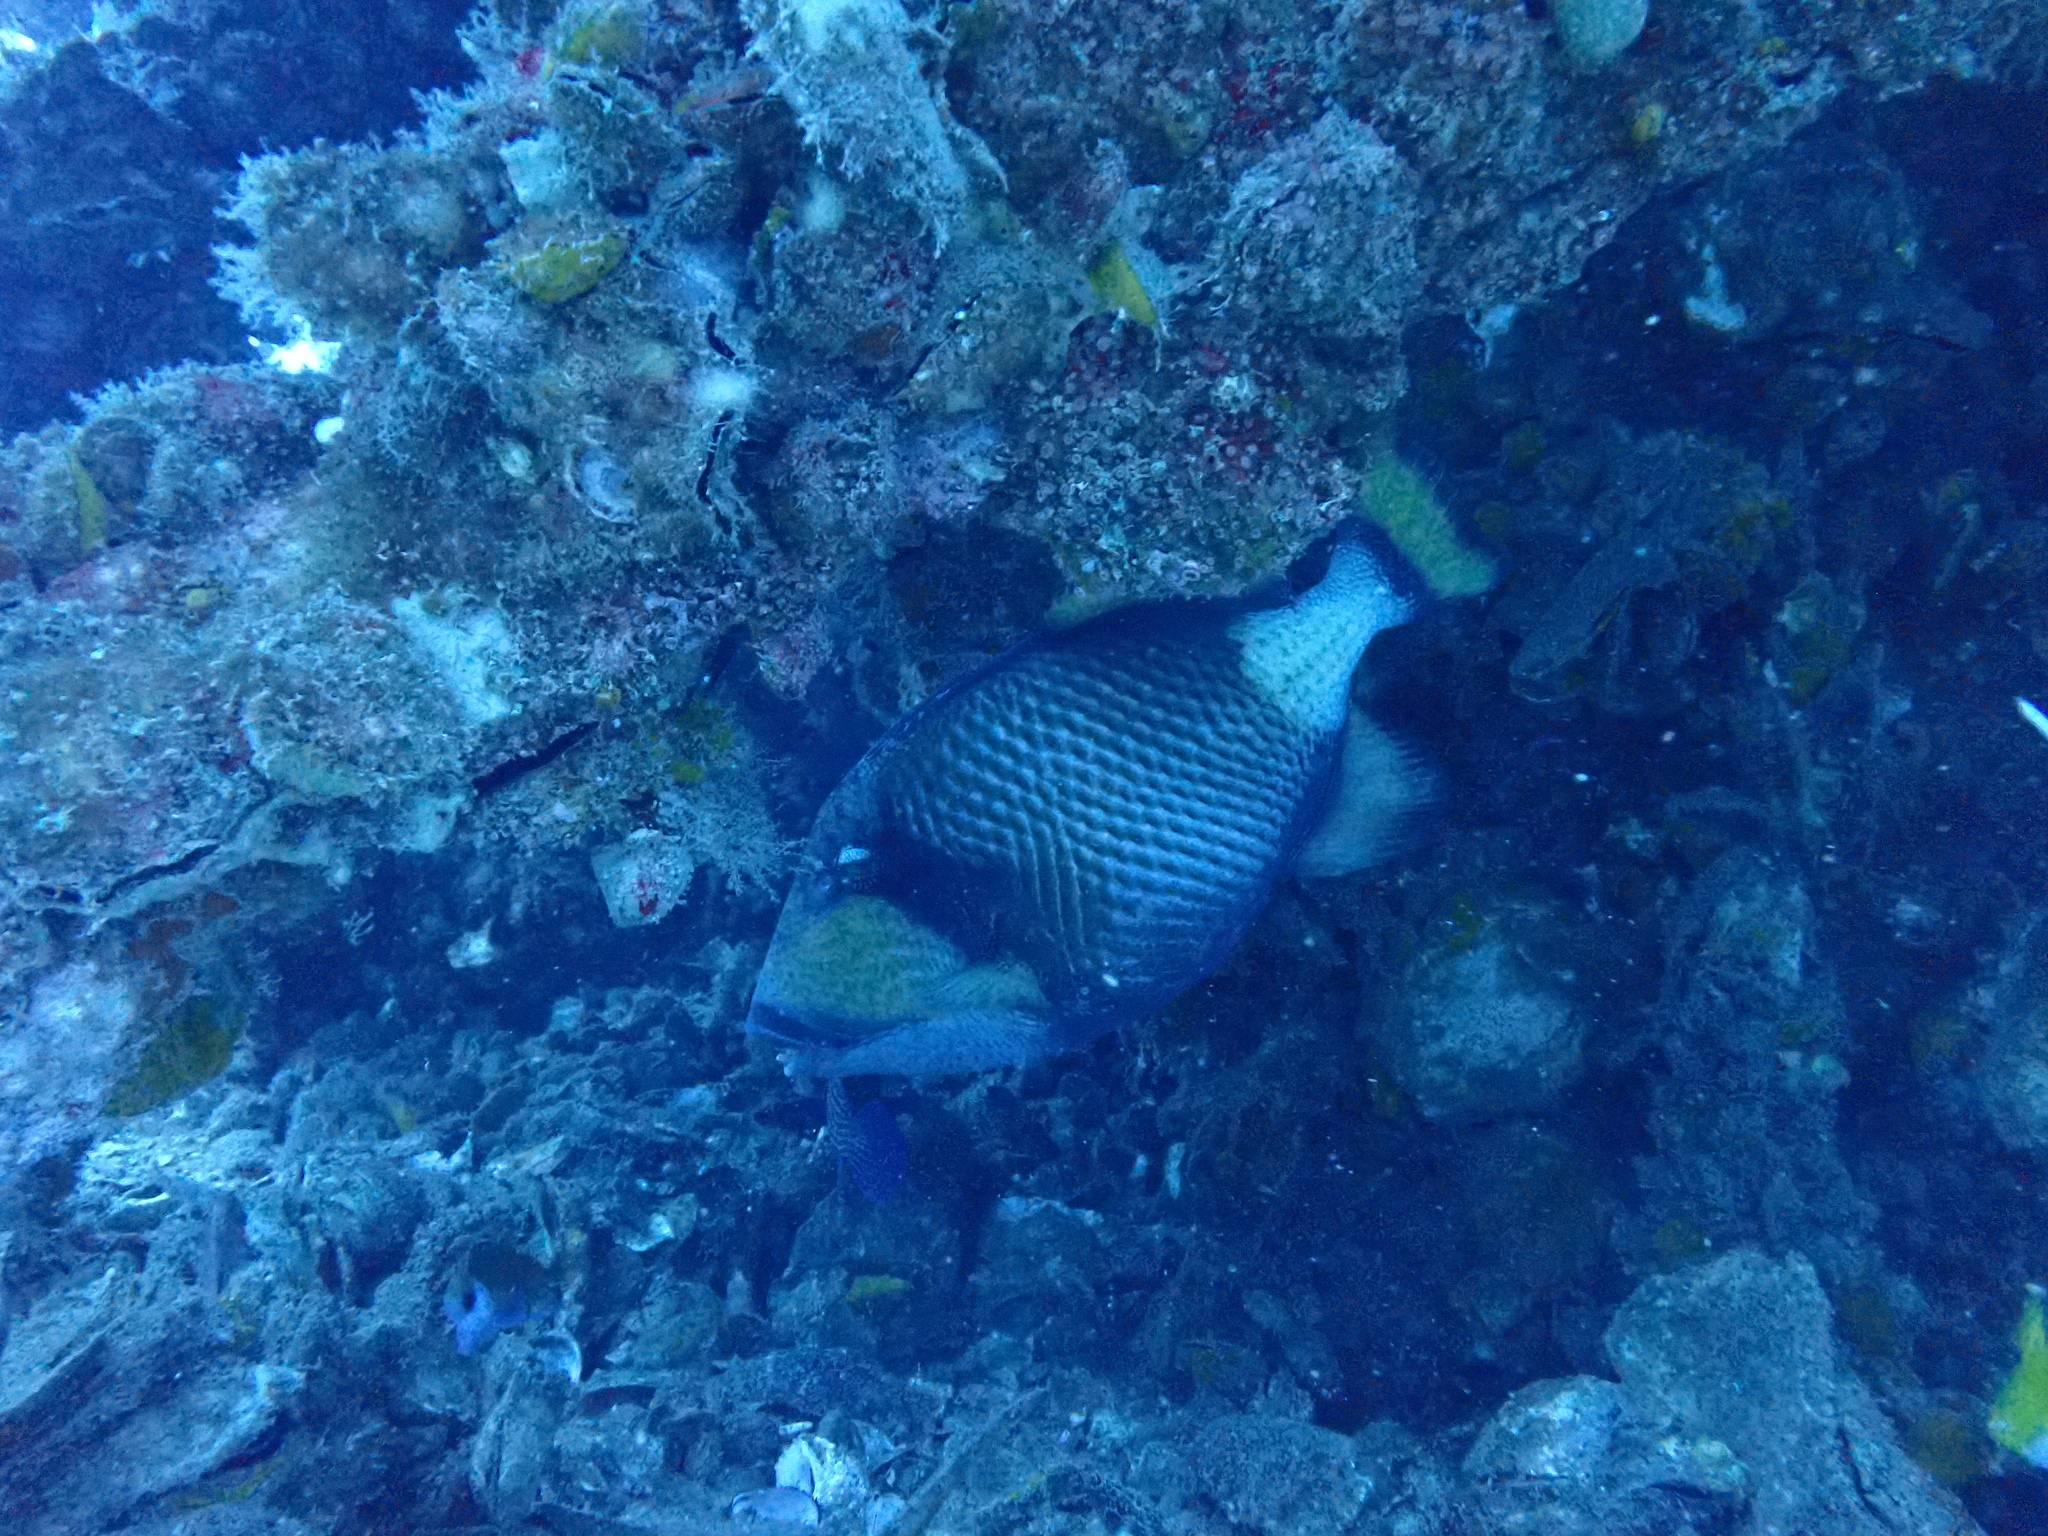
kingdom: Animalia
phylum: Chordata
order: Tetraodontiformes
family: Balistidae
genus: Balistoides
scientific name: Balistoides viridescens
